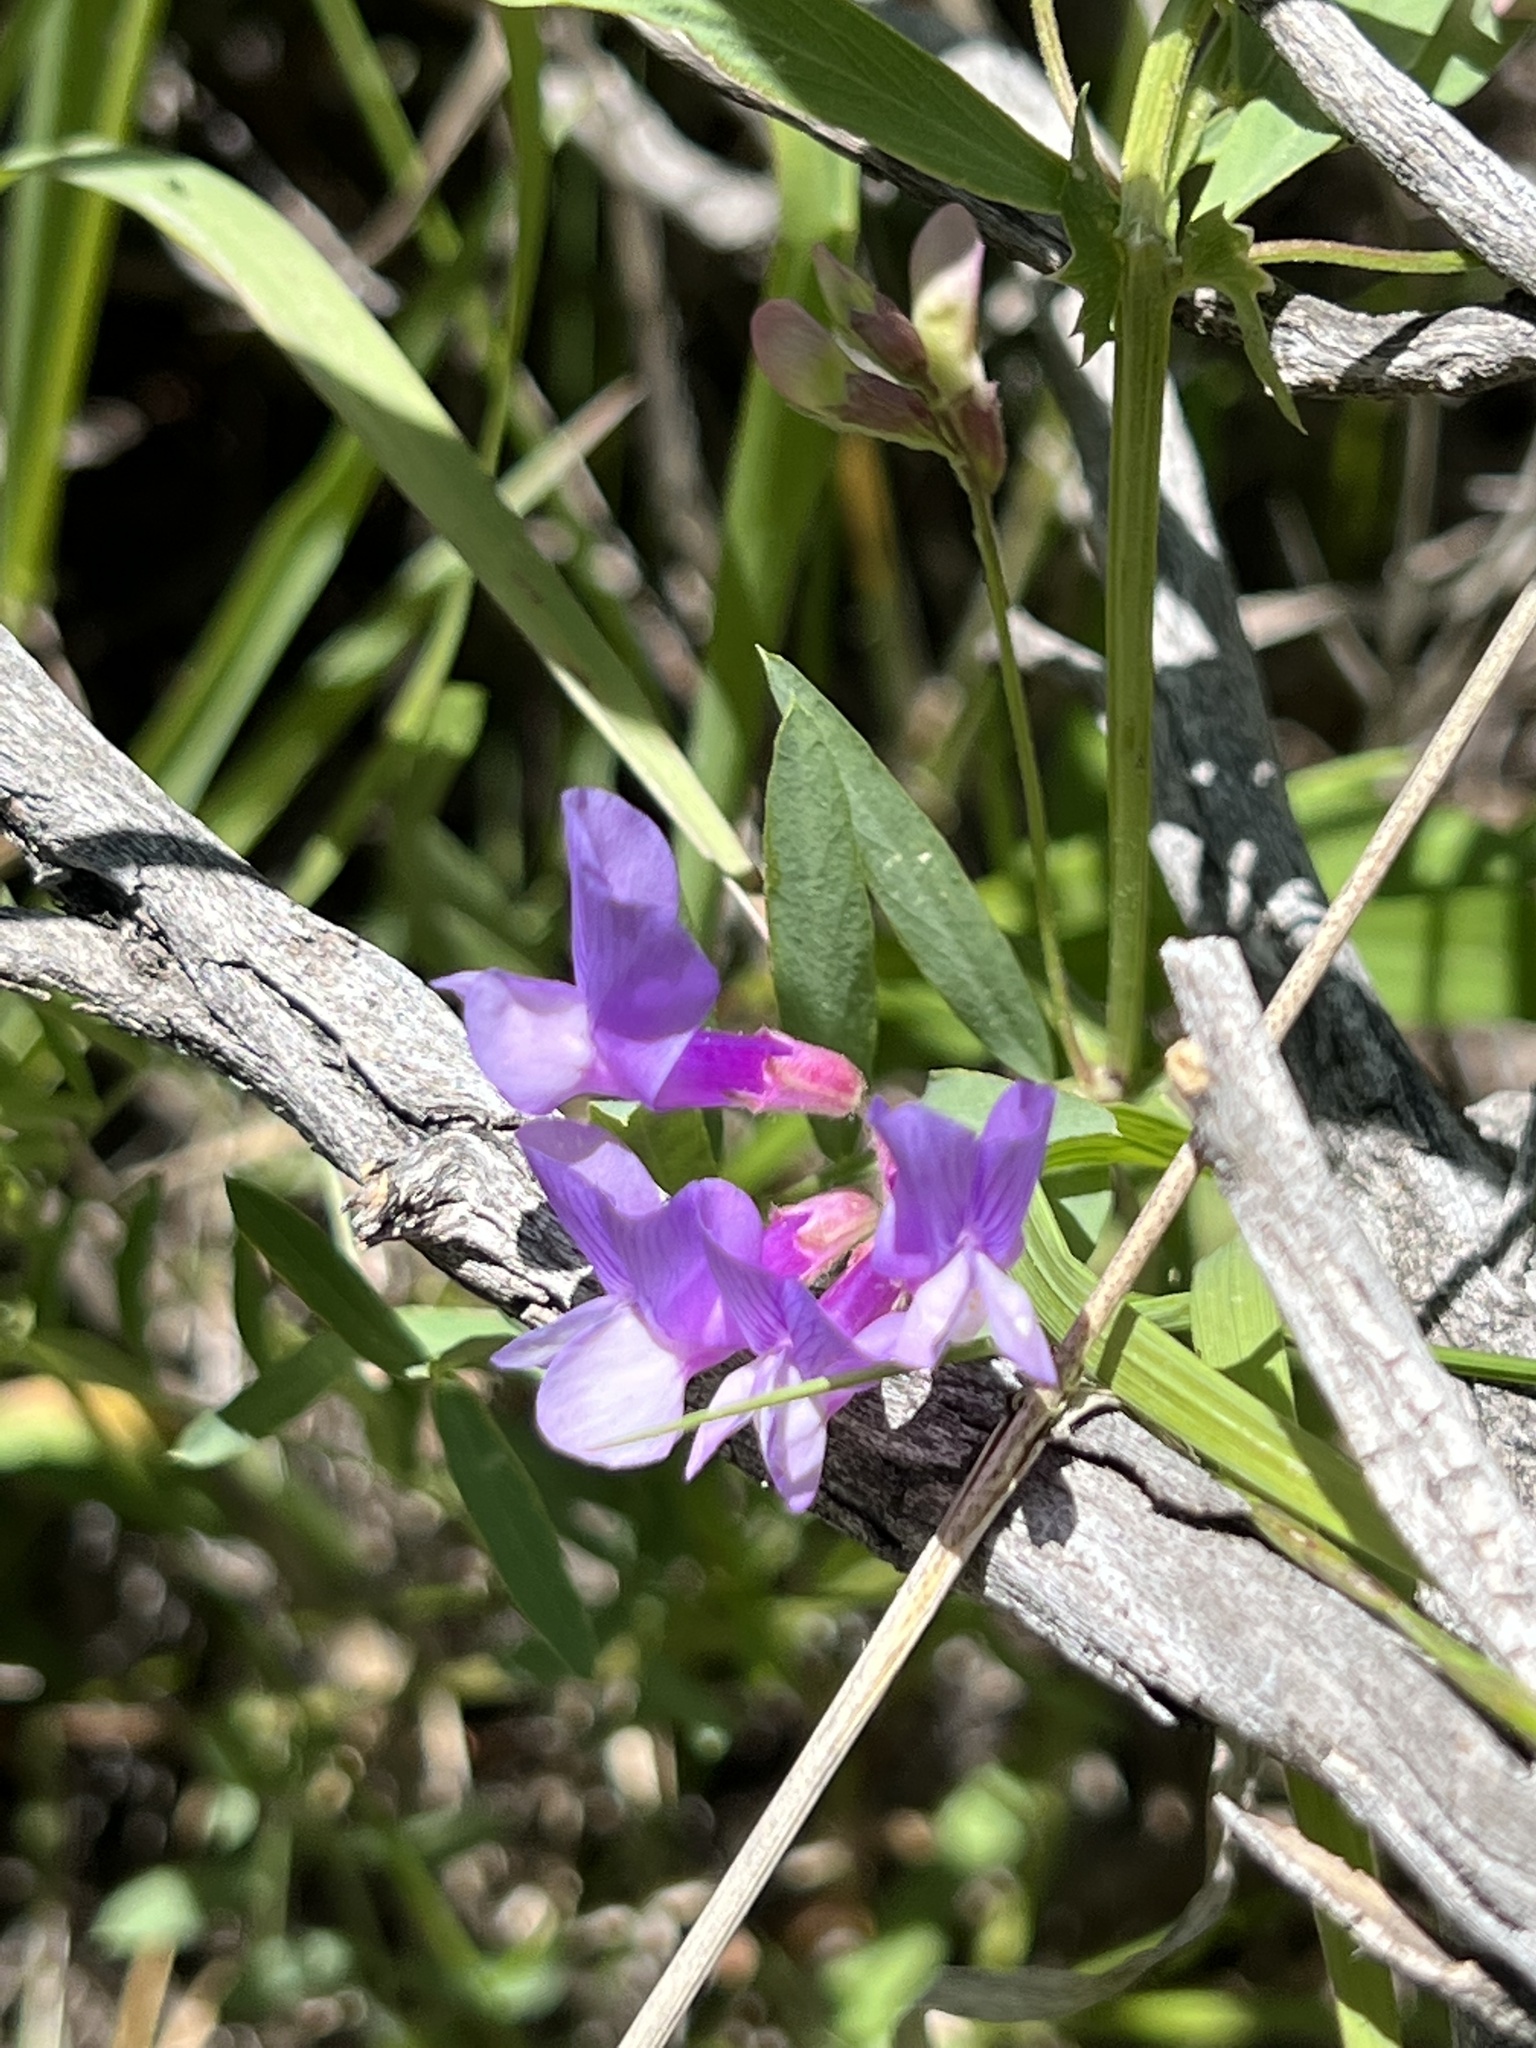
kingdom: Plantae
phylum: Tracheophyta
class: Magnoliopsida
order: Fabales
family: Fabaceae
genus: Vicia
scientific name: Vicia americana
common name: American vetch
